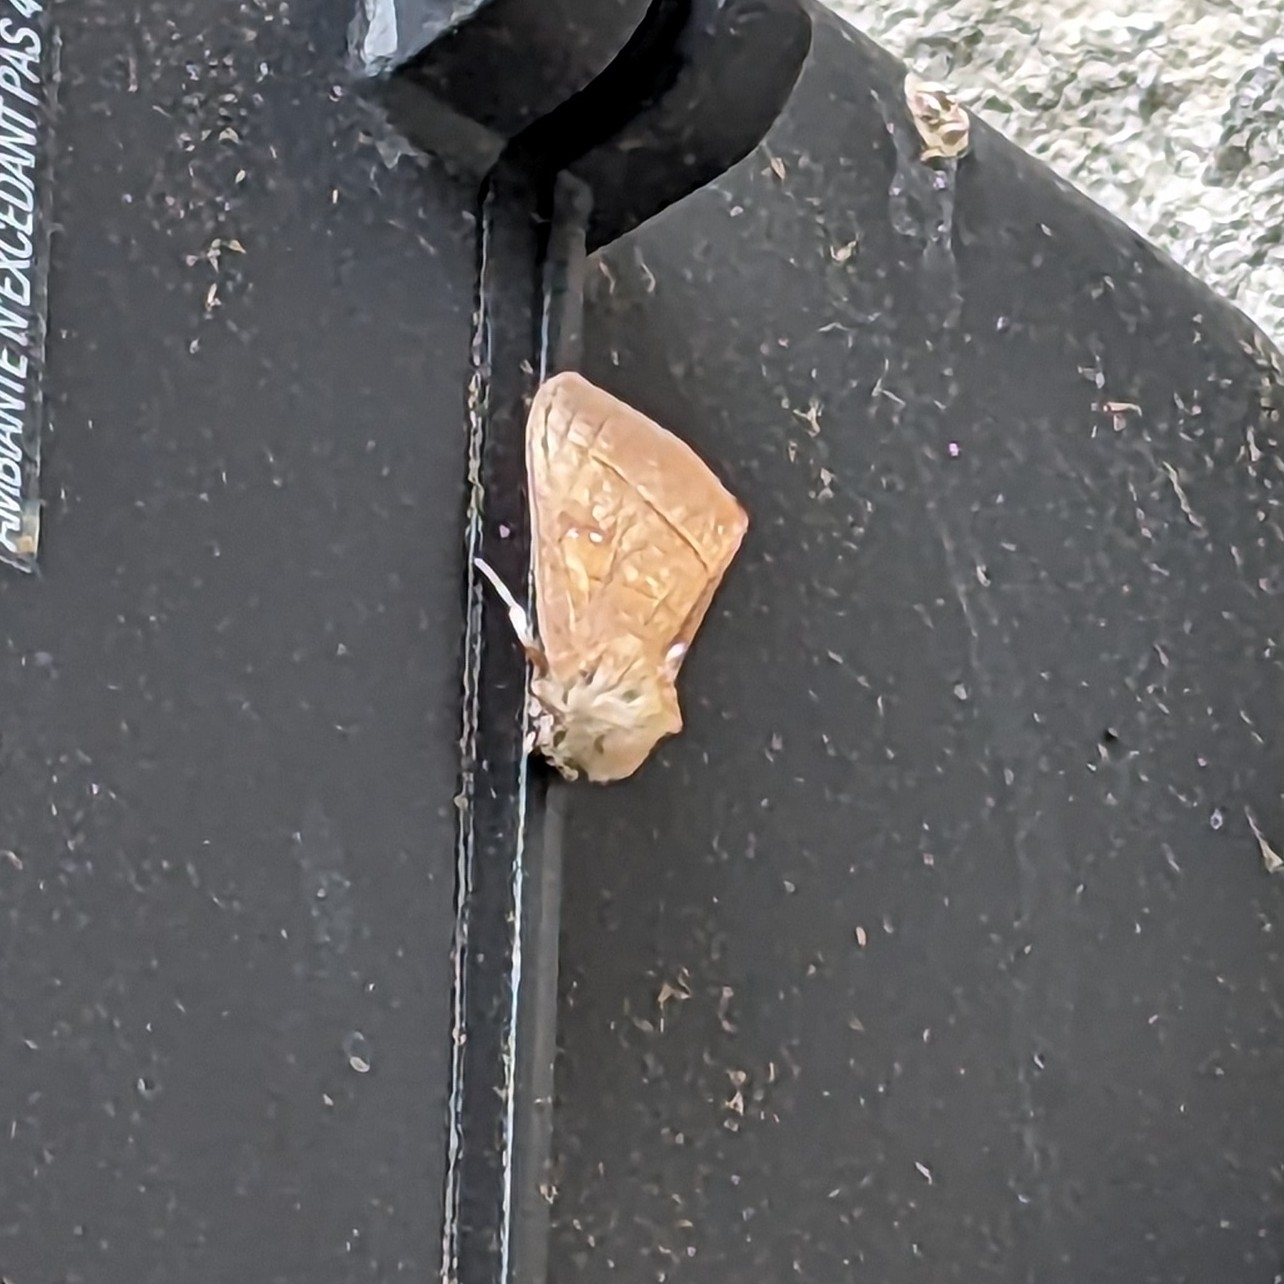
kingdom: Animalia
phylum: Arthropoda
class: Insecta
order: Lepidoptera
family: Notodontidae
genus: Nadata
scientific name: Nadata gibbosa
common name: White-dotted prominent
